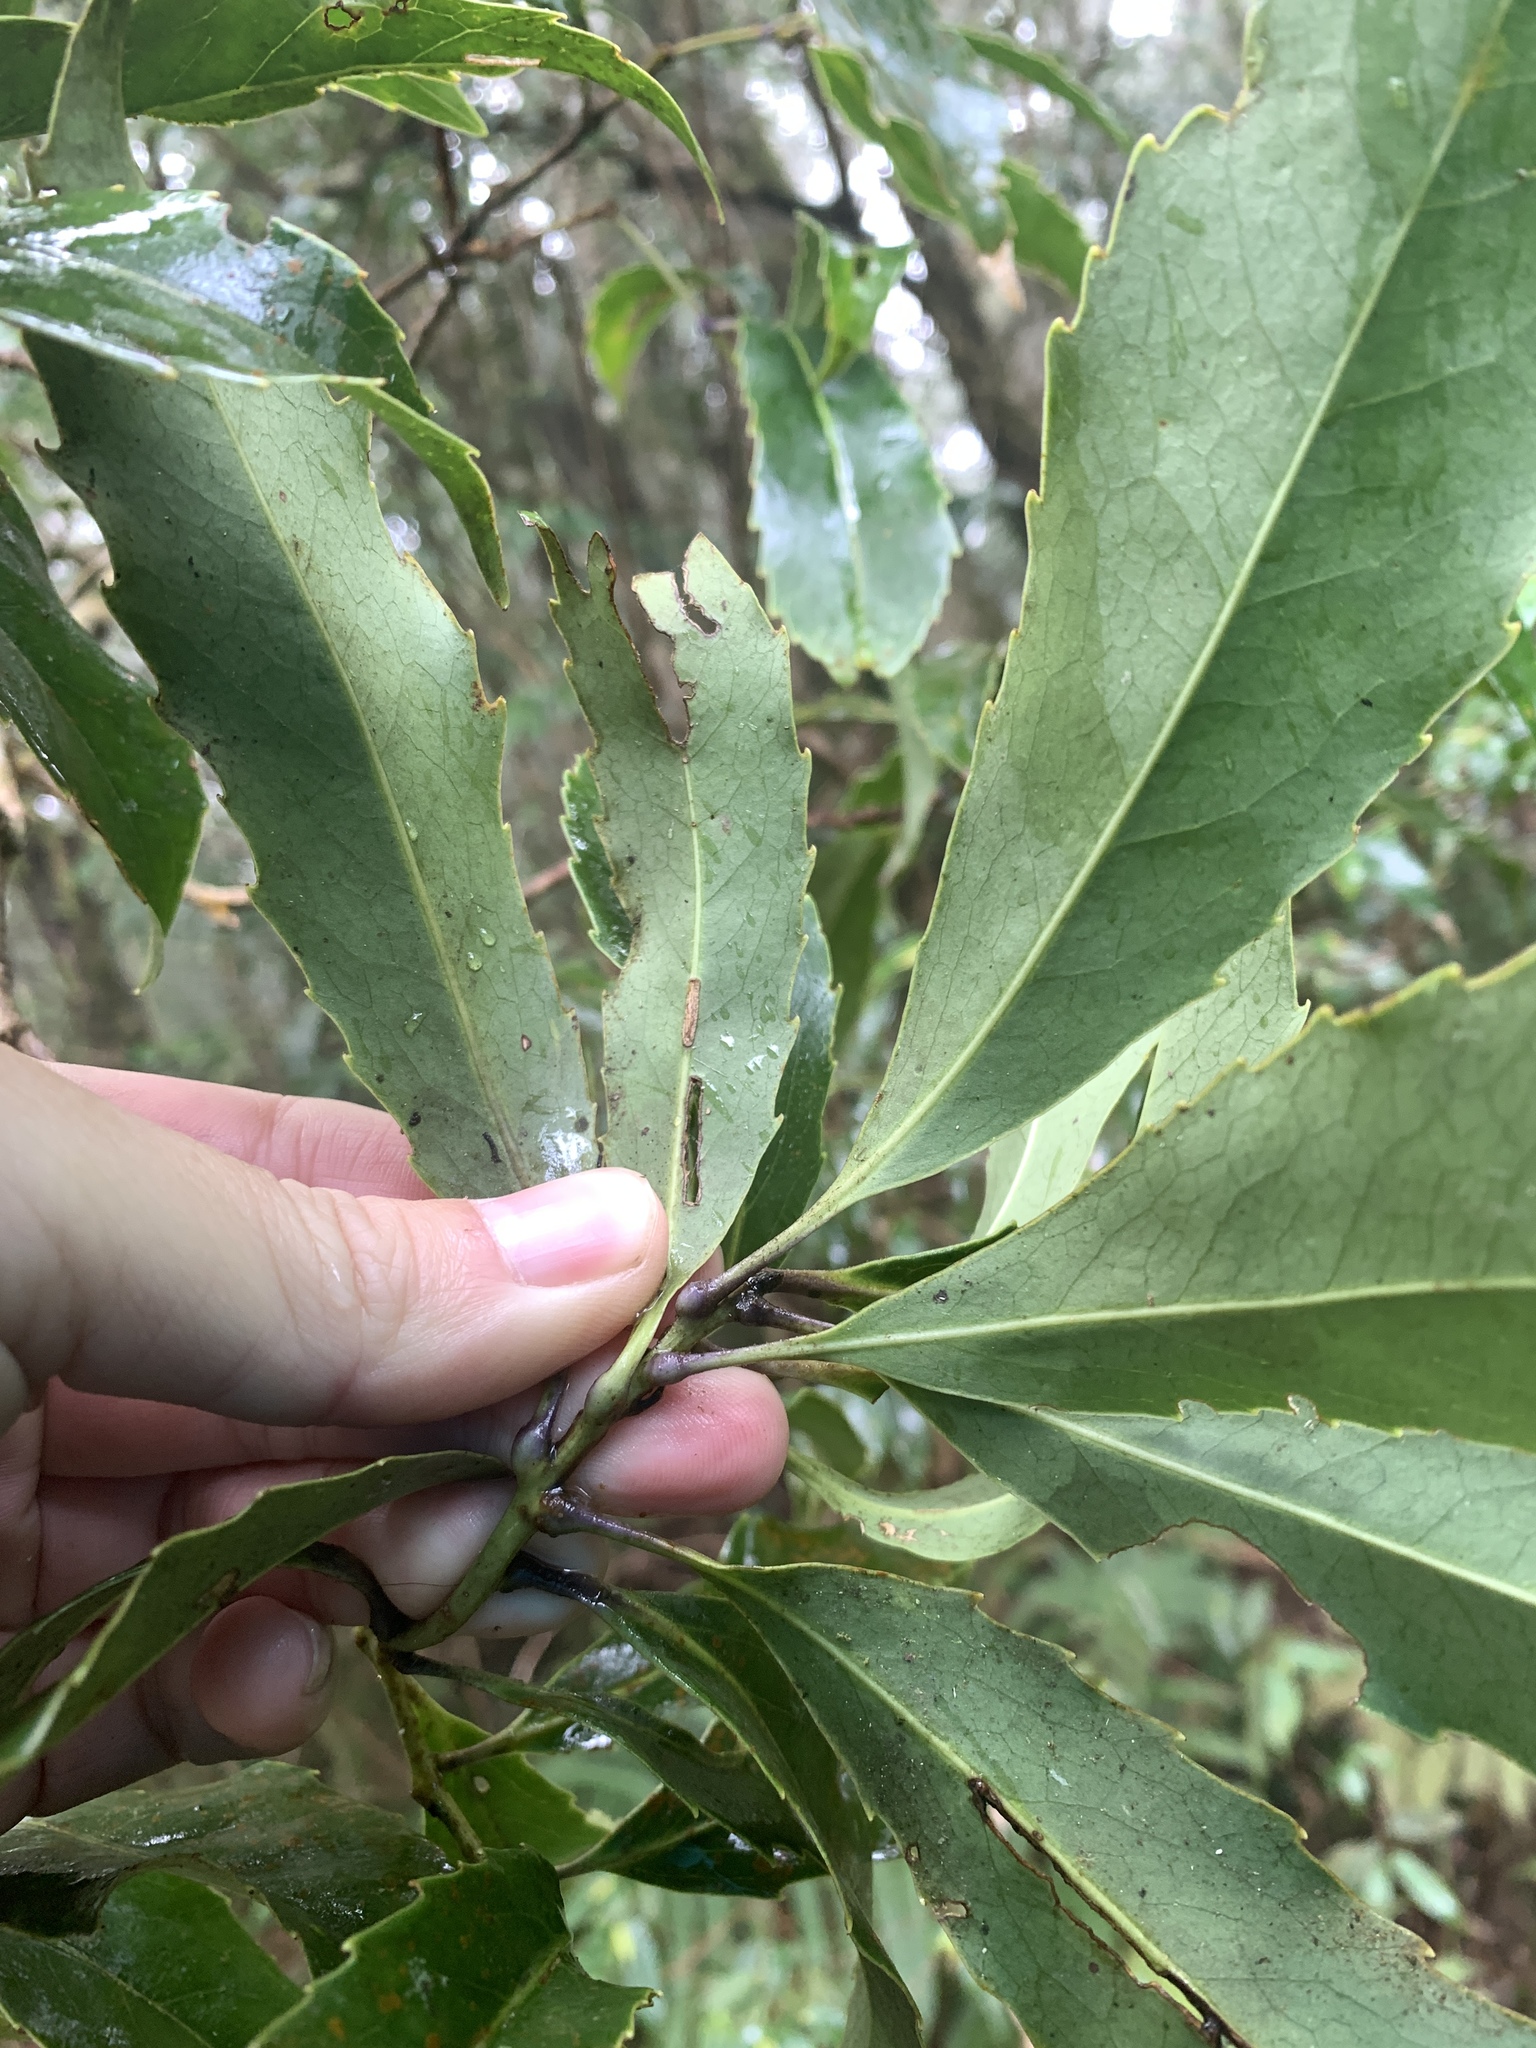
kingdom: Plantae
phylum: Tracheophyta
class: Magnoliopsida
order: Proteales
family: Proteaceae
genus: Helicia
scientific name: Helicia rengetiensis
